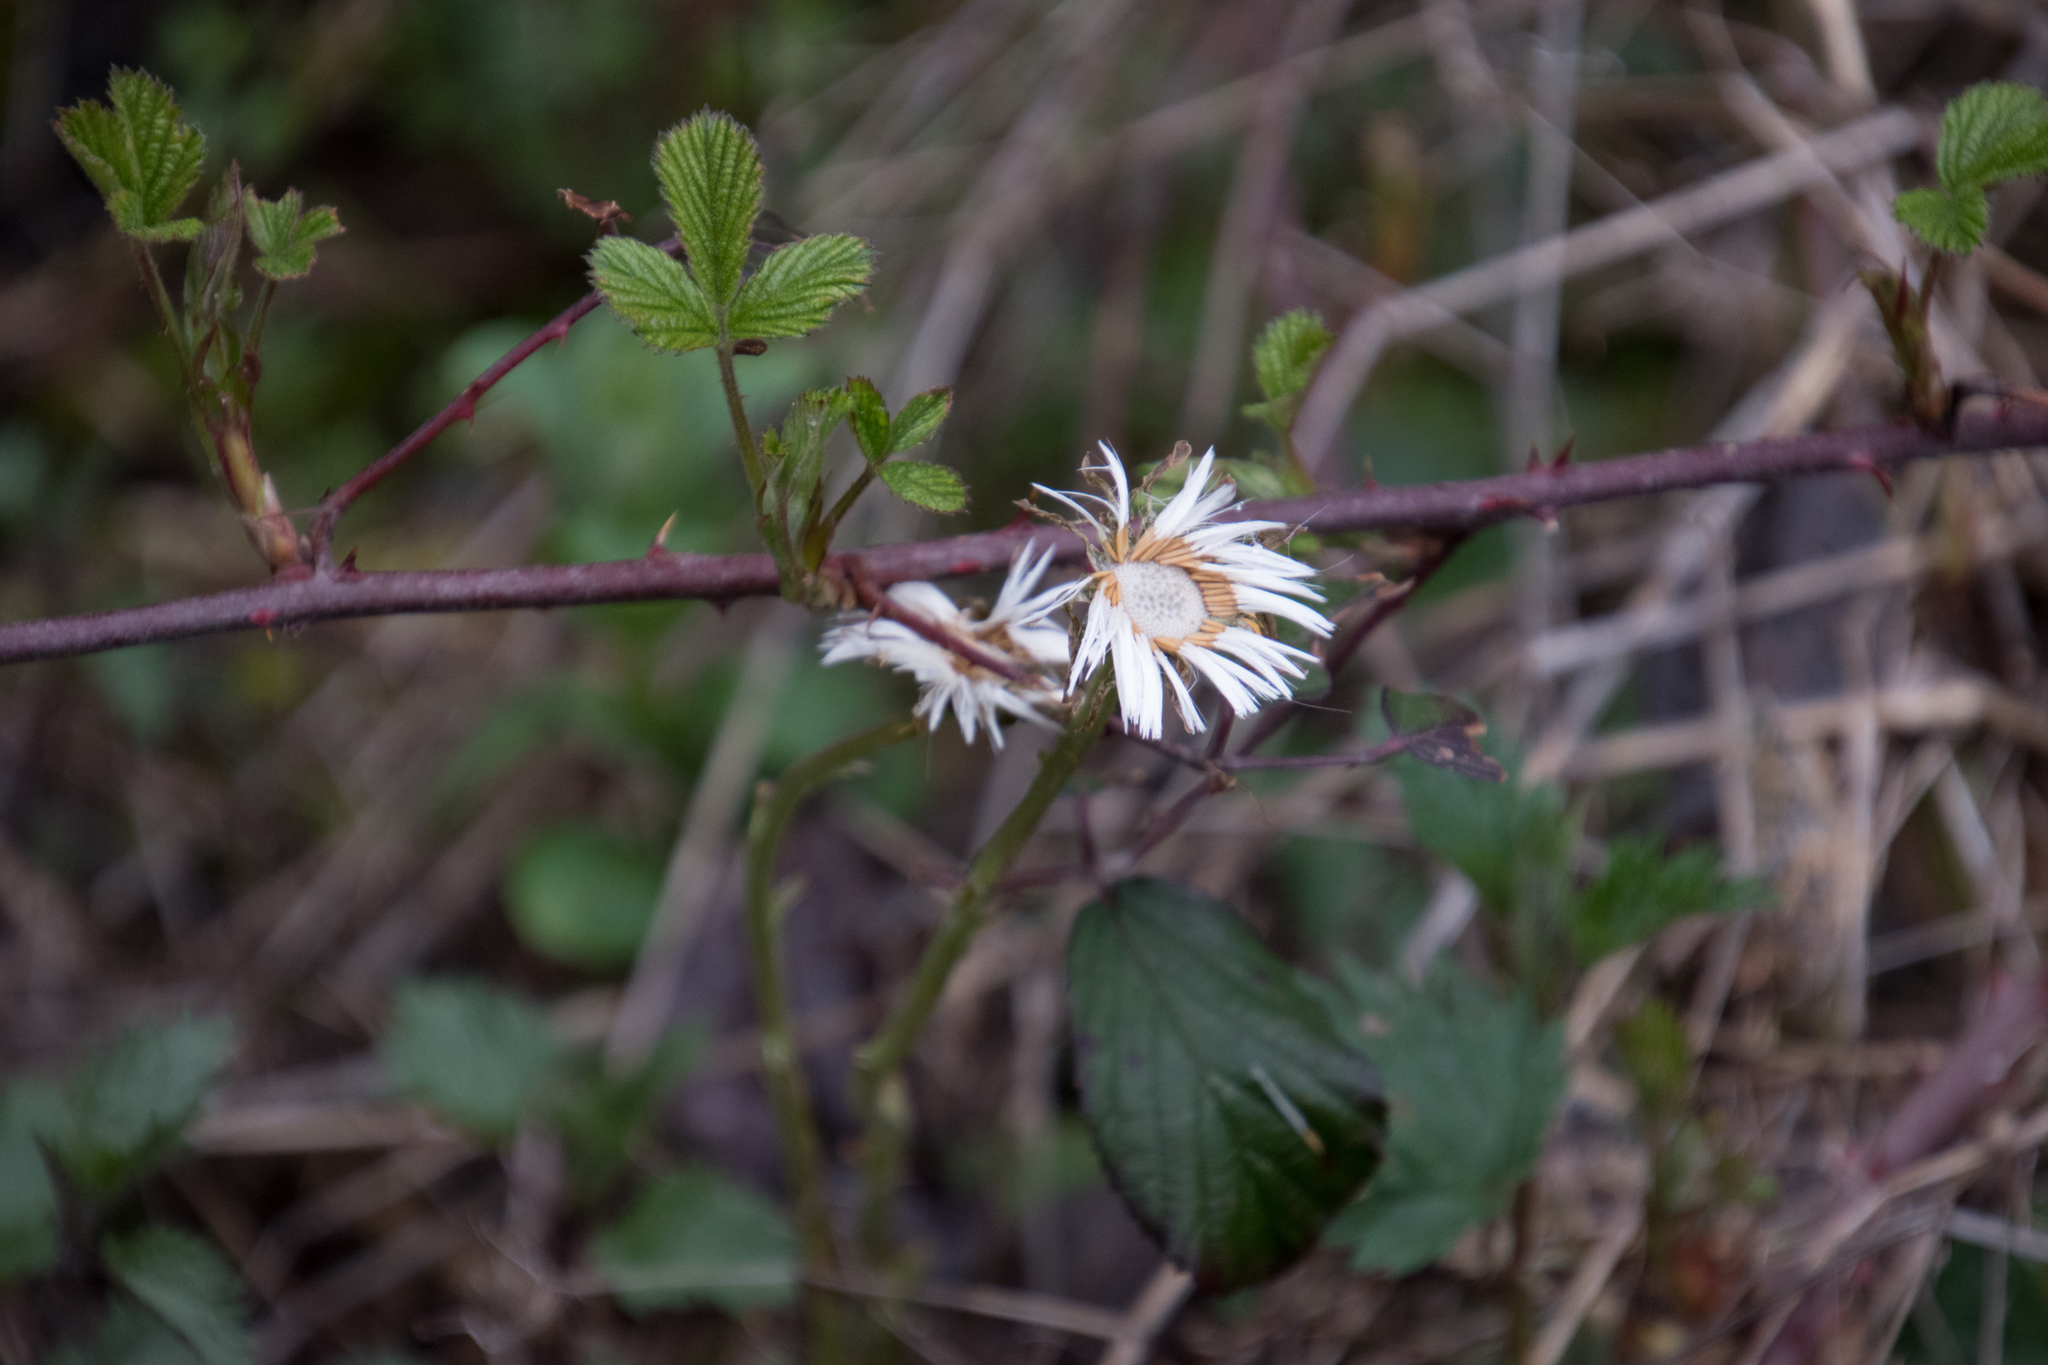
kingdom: Plantae
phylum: Tracheophyta
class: Magnoliopsida
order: Asterales
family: Asteraceae
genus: Tussilago
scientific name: Tussilago farfara
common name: Coltsfoot
